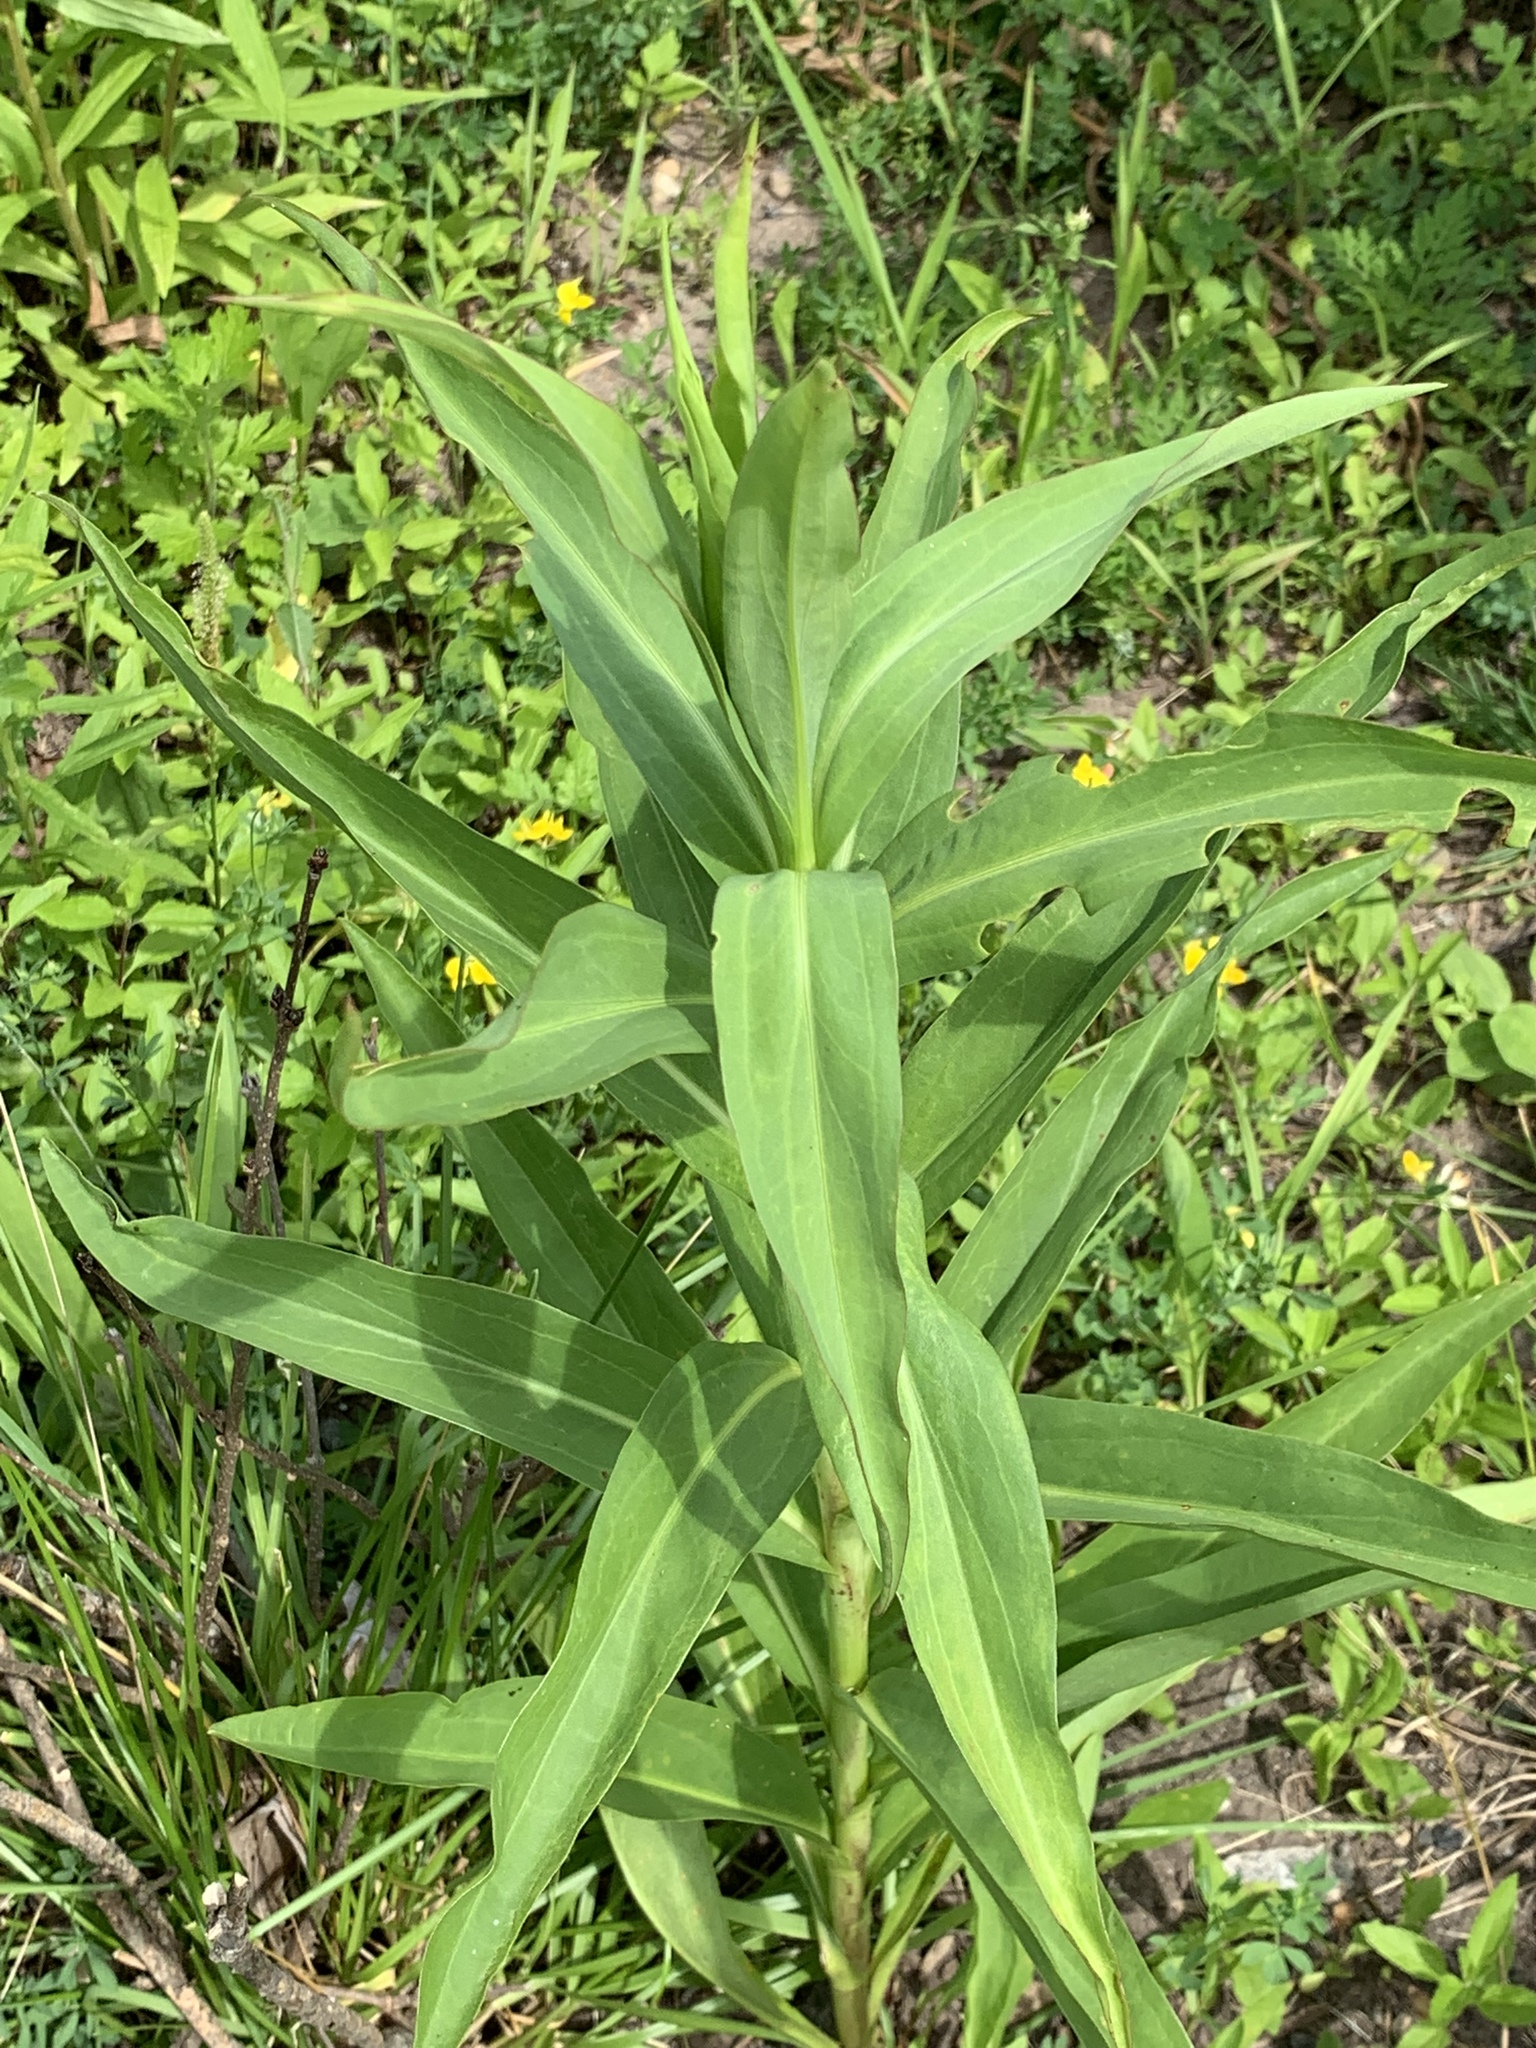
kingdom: Plantae
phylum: Tracheophyta
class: Magnoliopsida
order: Asterales
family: Asteraceae
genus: Solidago
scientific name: Solidago sempervirens
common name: Salt-marsh goldenrod
